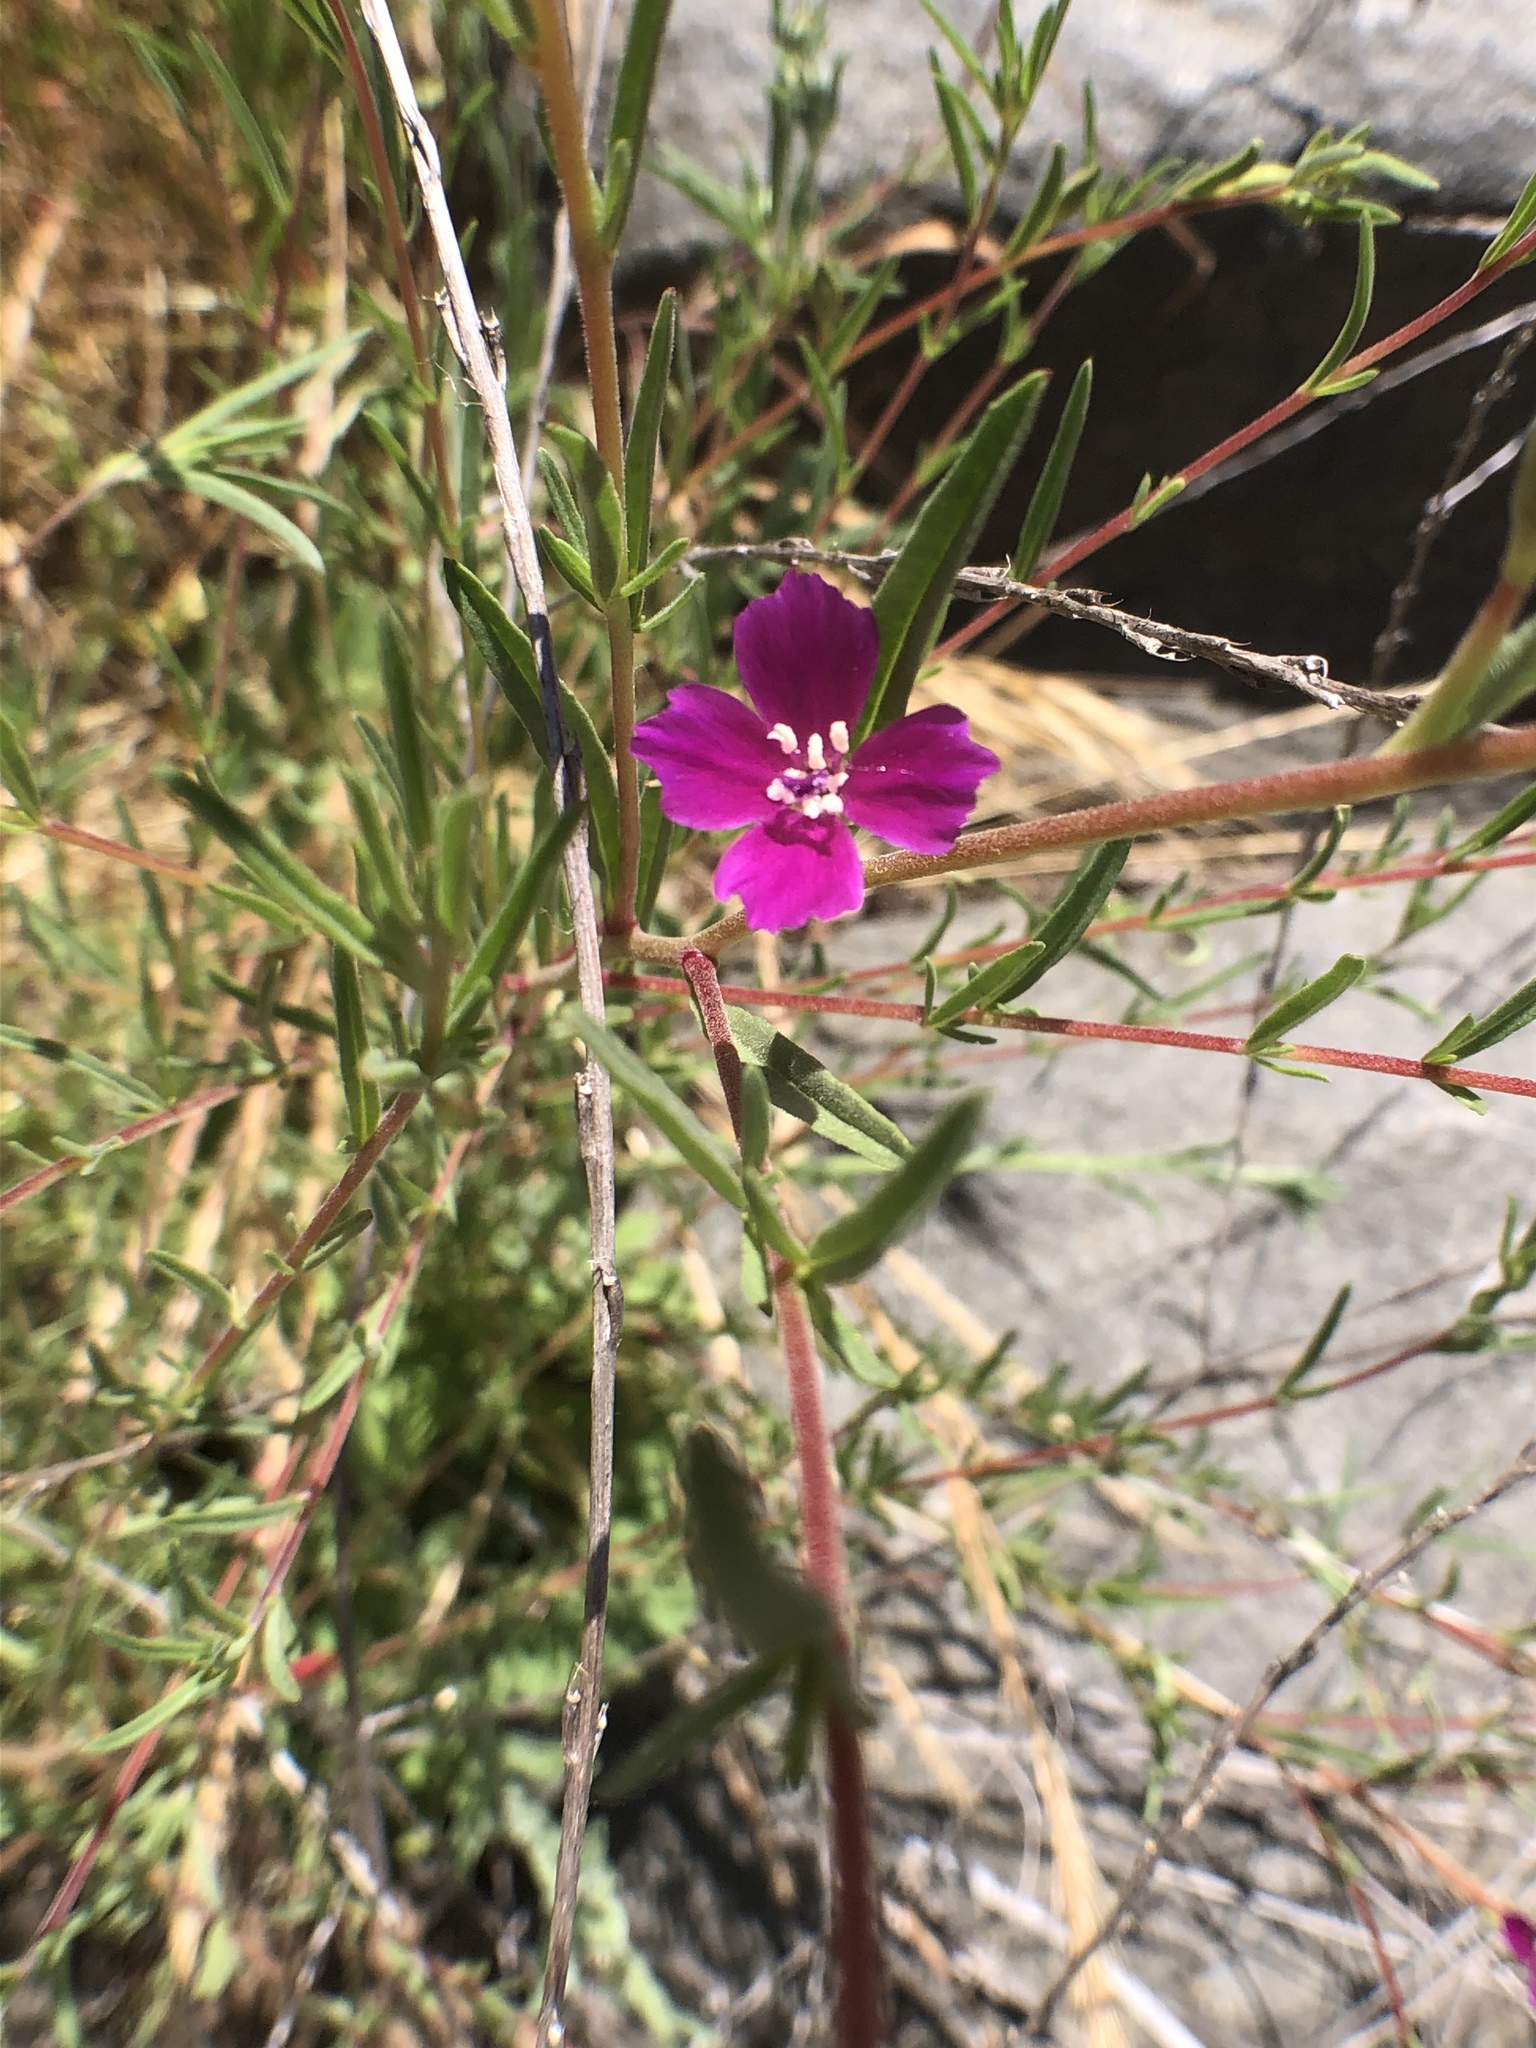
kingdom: Plantae
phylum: Tracheophyta
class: Magnoliopsida
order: Myrtales
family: Onagraceae
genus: Clarkia
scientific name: Clarkia purpurea
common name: Purple clarkia
